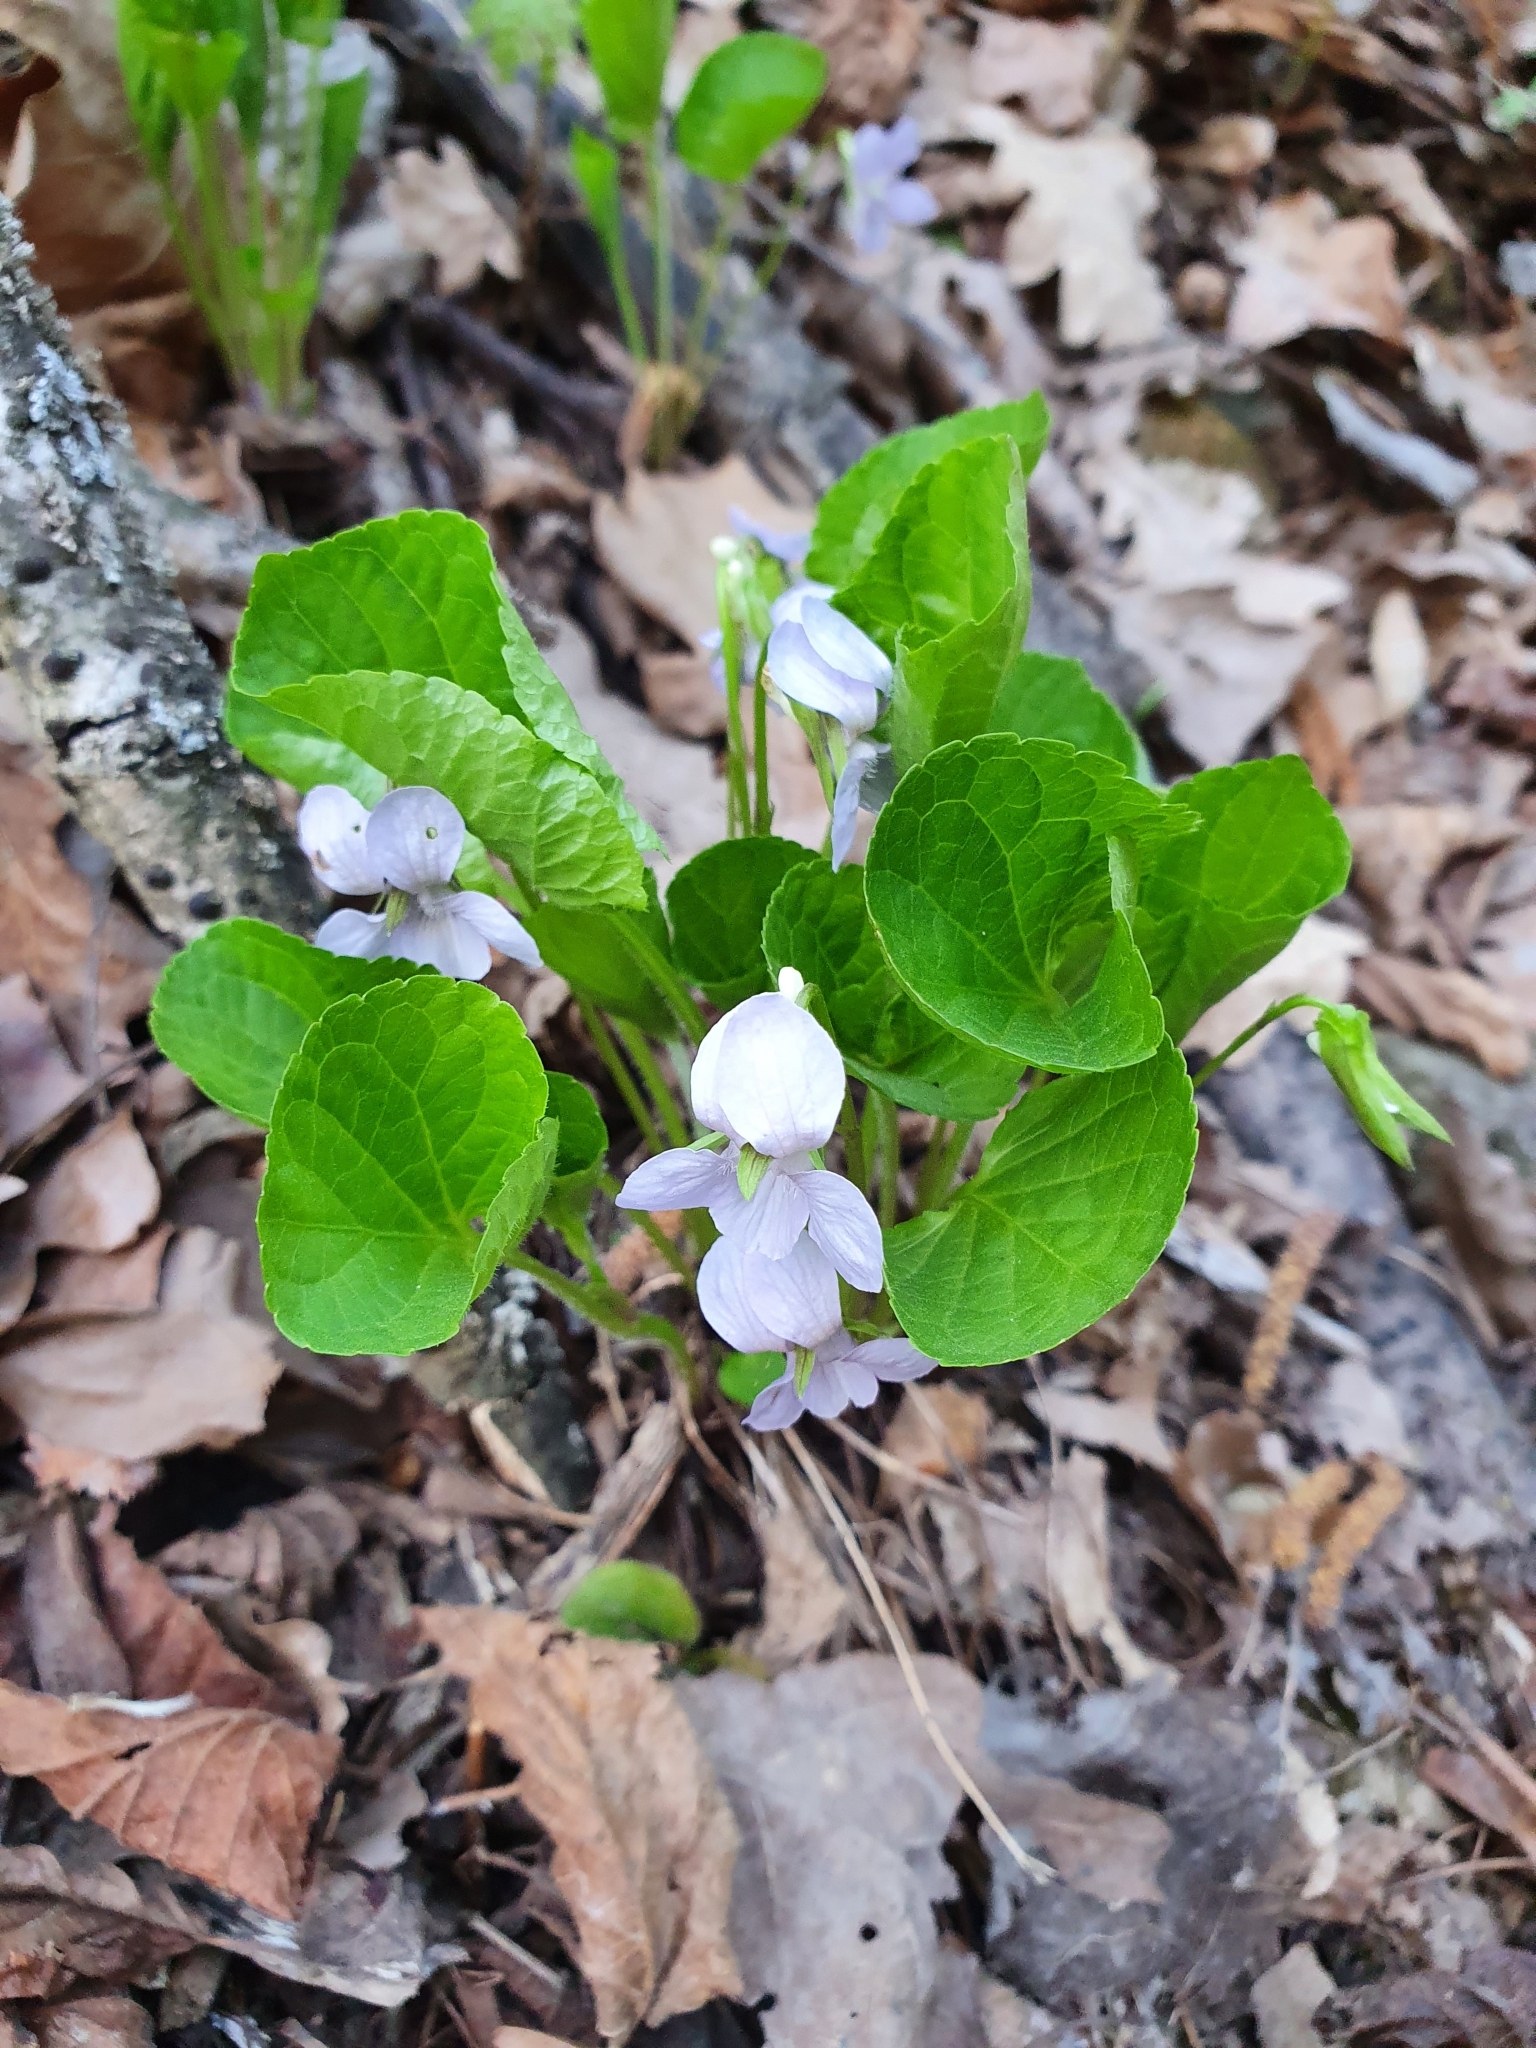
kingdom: Plantae
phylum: Tracheophyta
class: Magnoliopsida
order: Malpighiales
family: Violaceae
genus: Viola
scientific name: Viola mirabilis
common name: Wonder violet
